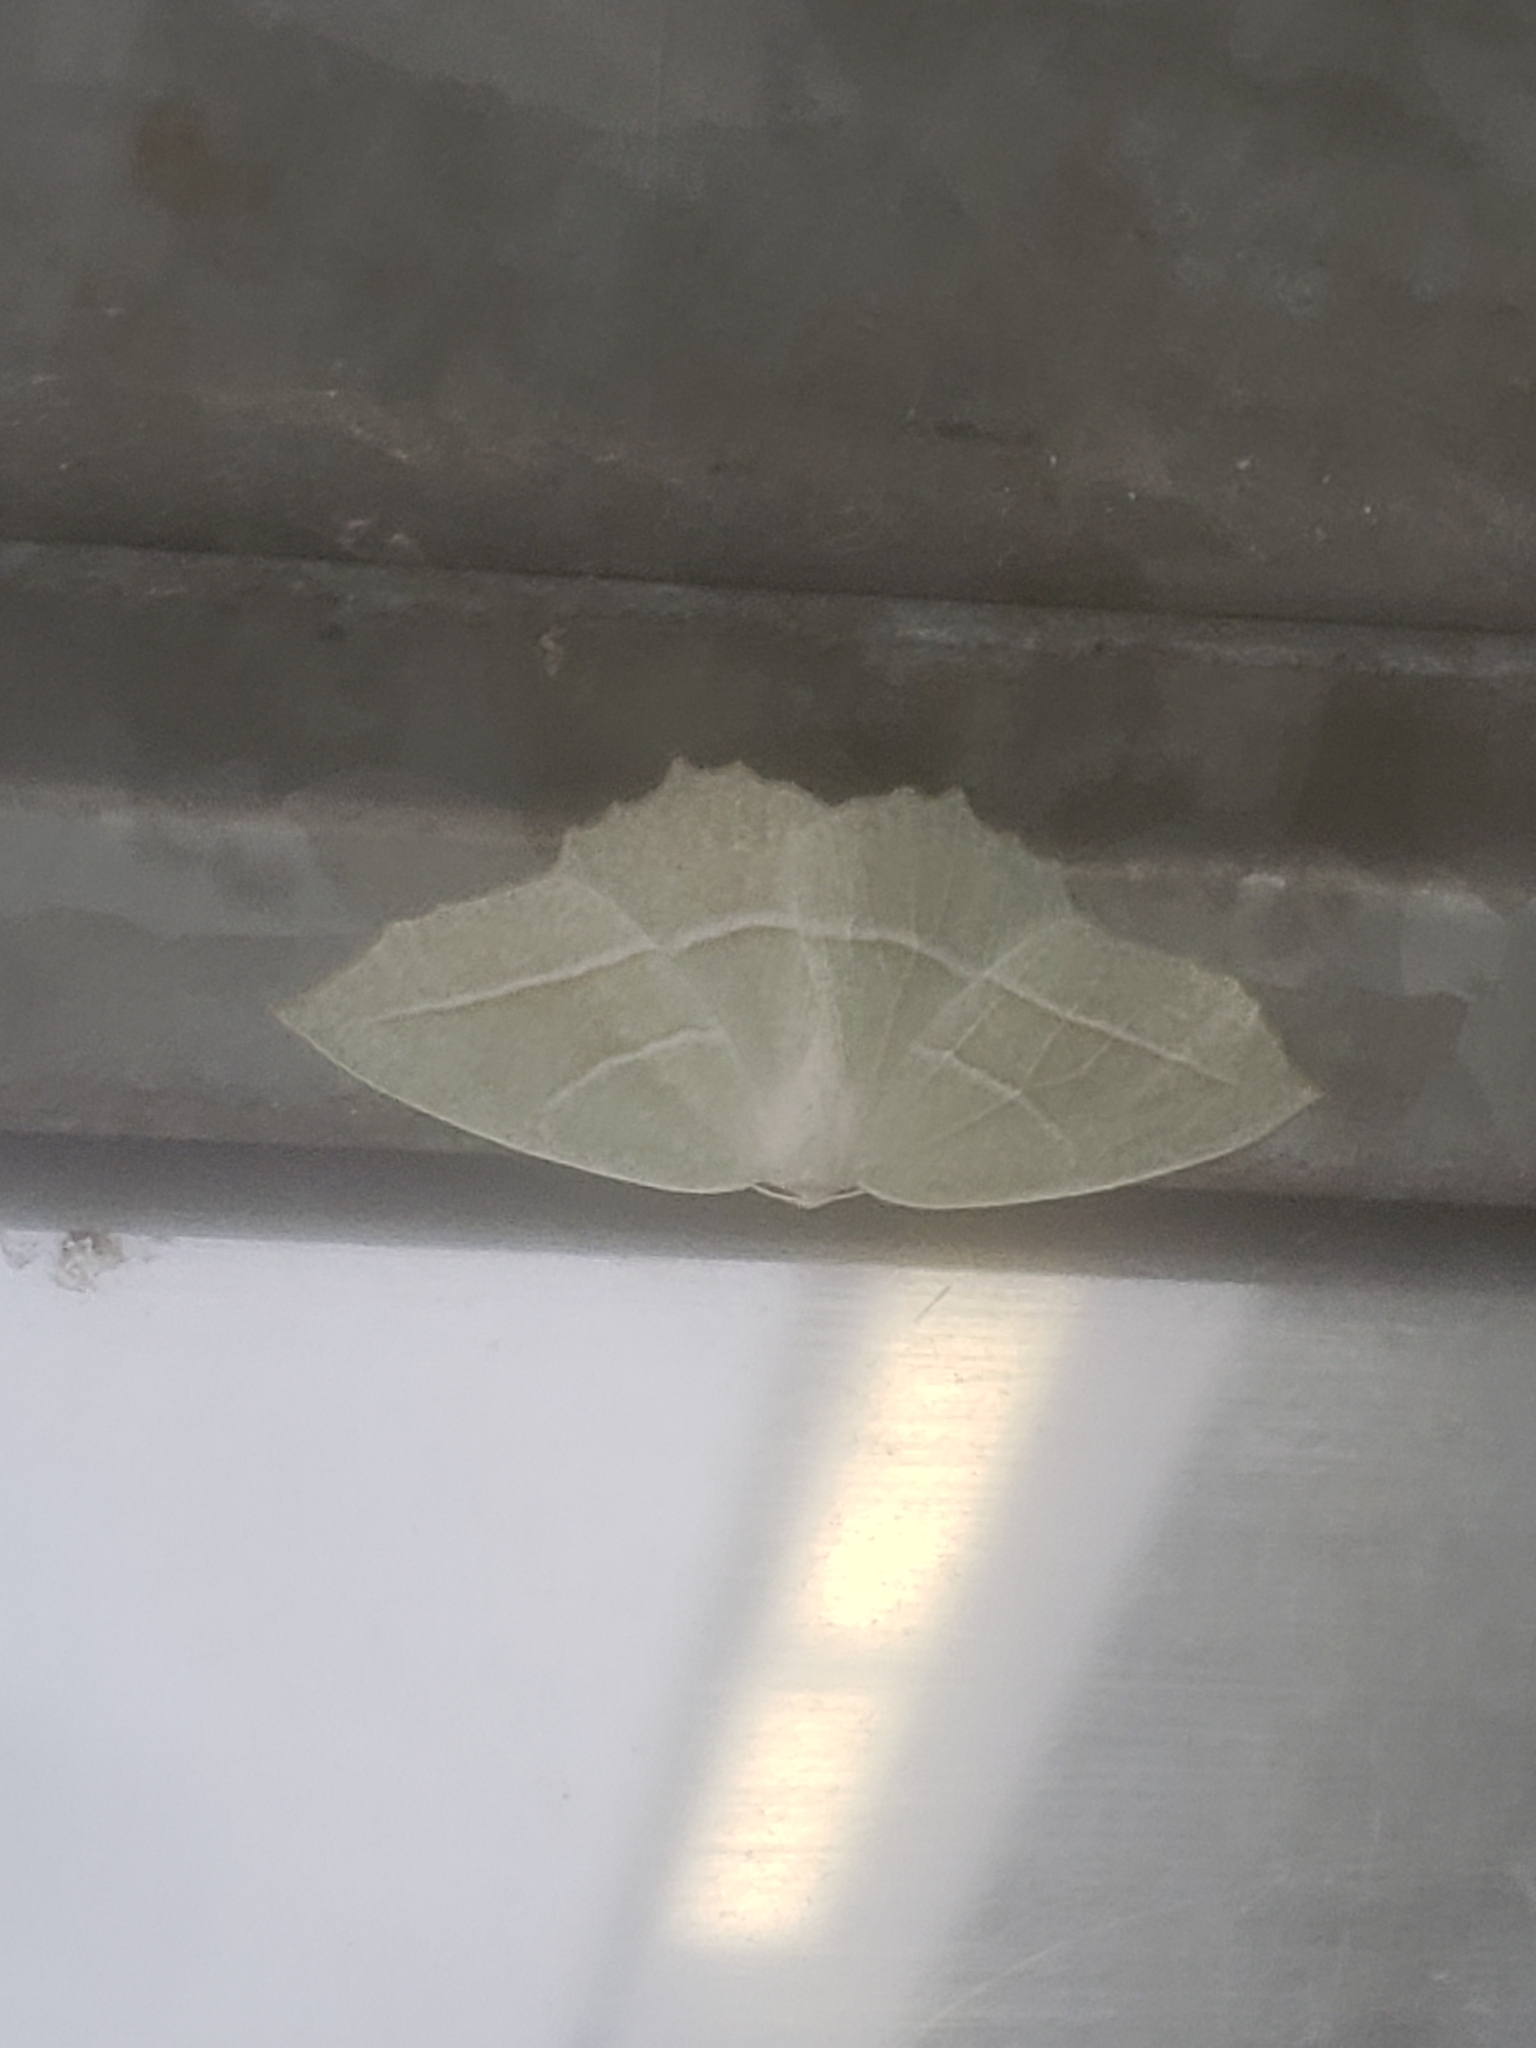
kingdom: Animalia
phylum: Arthropoda
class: Insecta
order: Lepidoptera
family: Geometridae
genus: Campaea
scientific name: Campaea perlata
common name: Fringed looper
